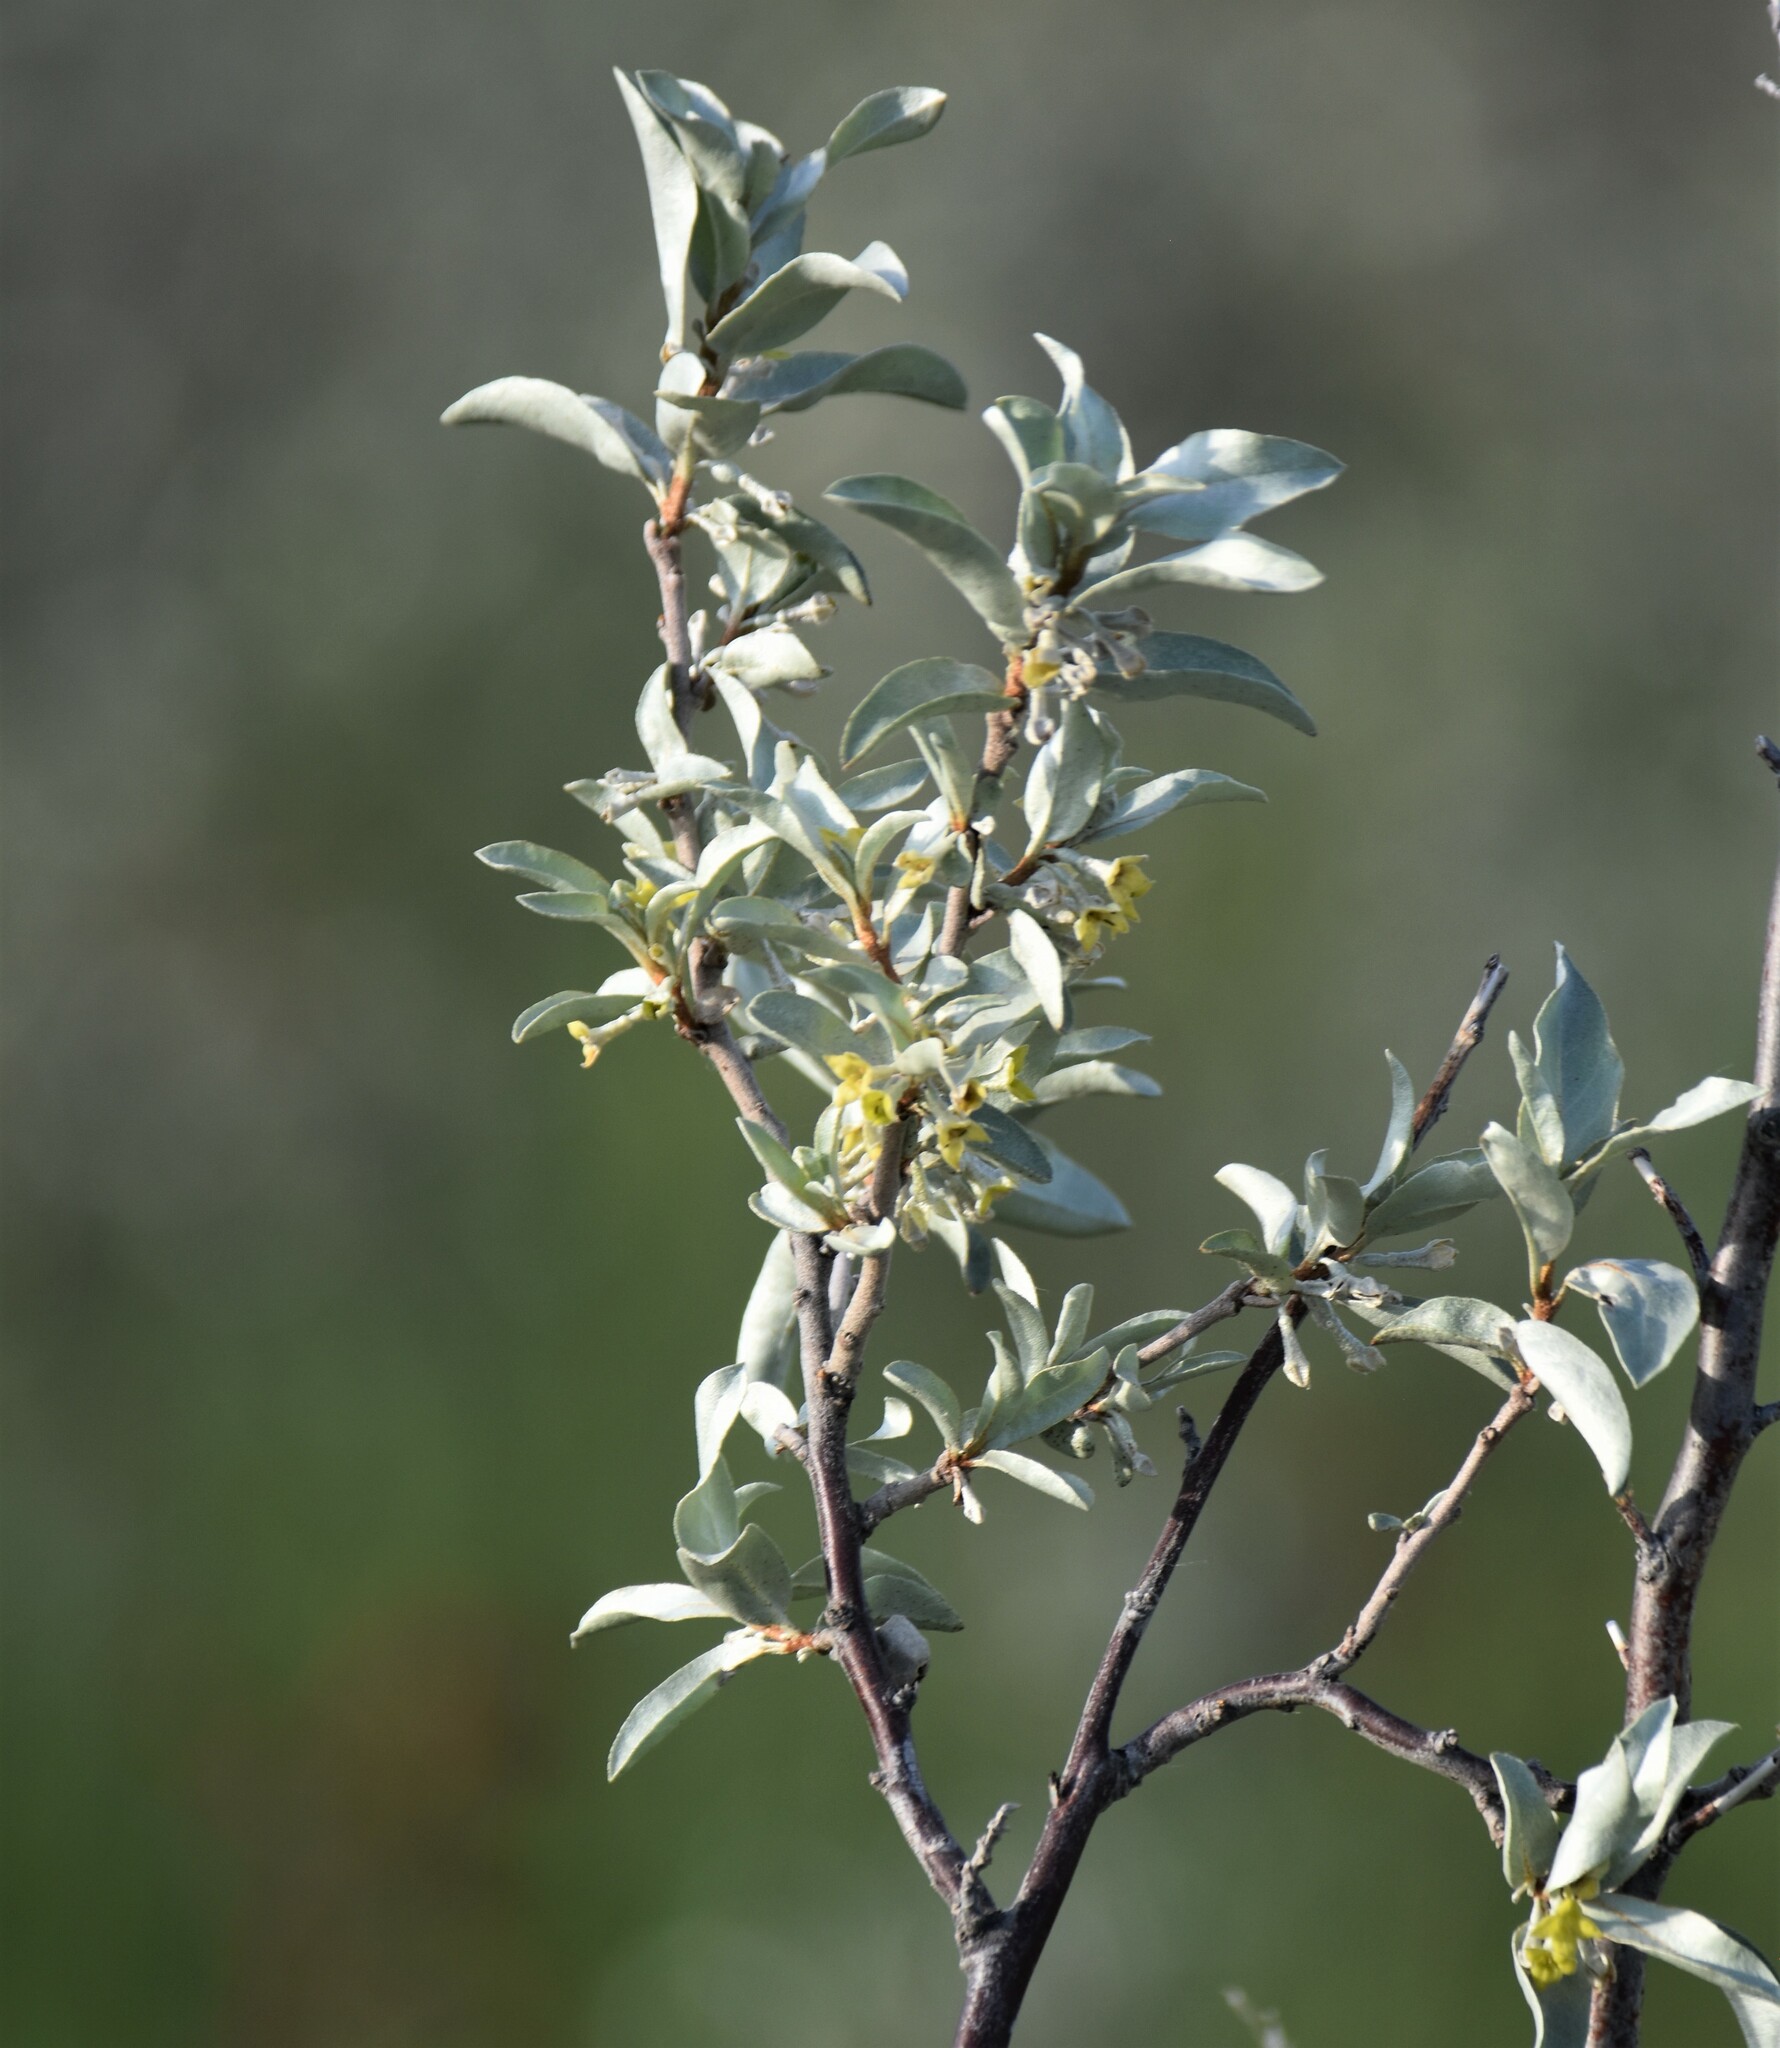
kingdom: Plantae
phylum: Tracheophyta
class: Magnoliopsida
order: Rosales
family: Elaeagnaceae
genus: Elaeagnus
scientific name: Elaeagnus commutata
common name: Silverberry
